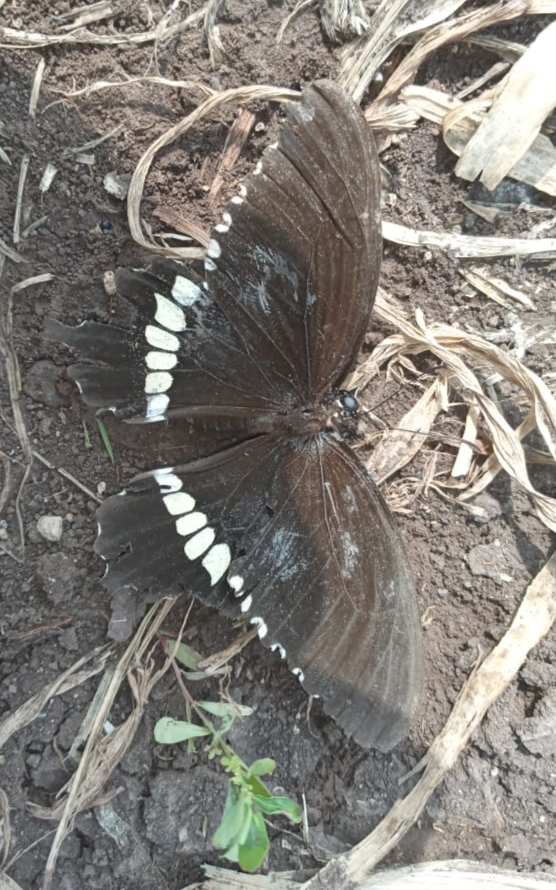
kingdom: Animalia
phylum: Arthropoda
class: Insecta
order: Lepidoptera
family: Papilionidae
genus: Papilio
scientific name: Papilio polytes
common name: Common mormon
